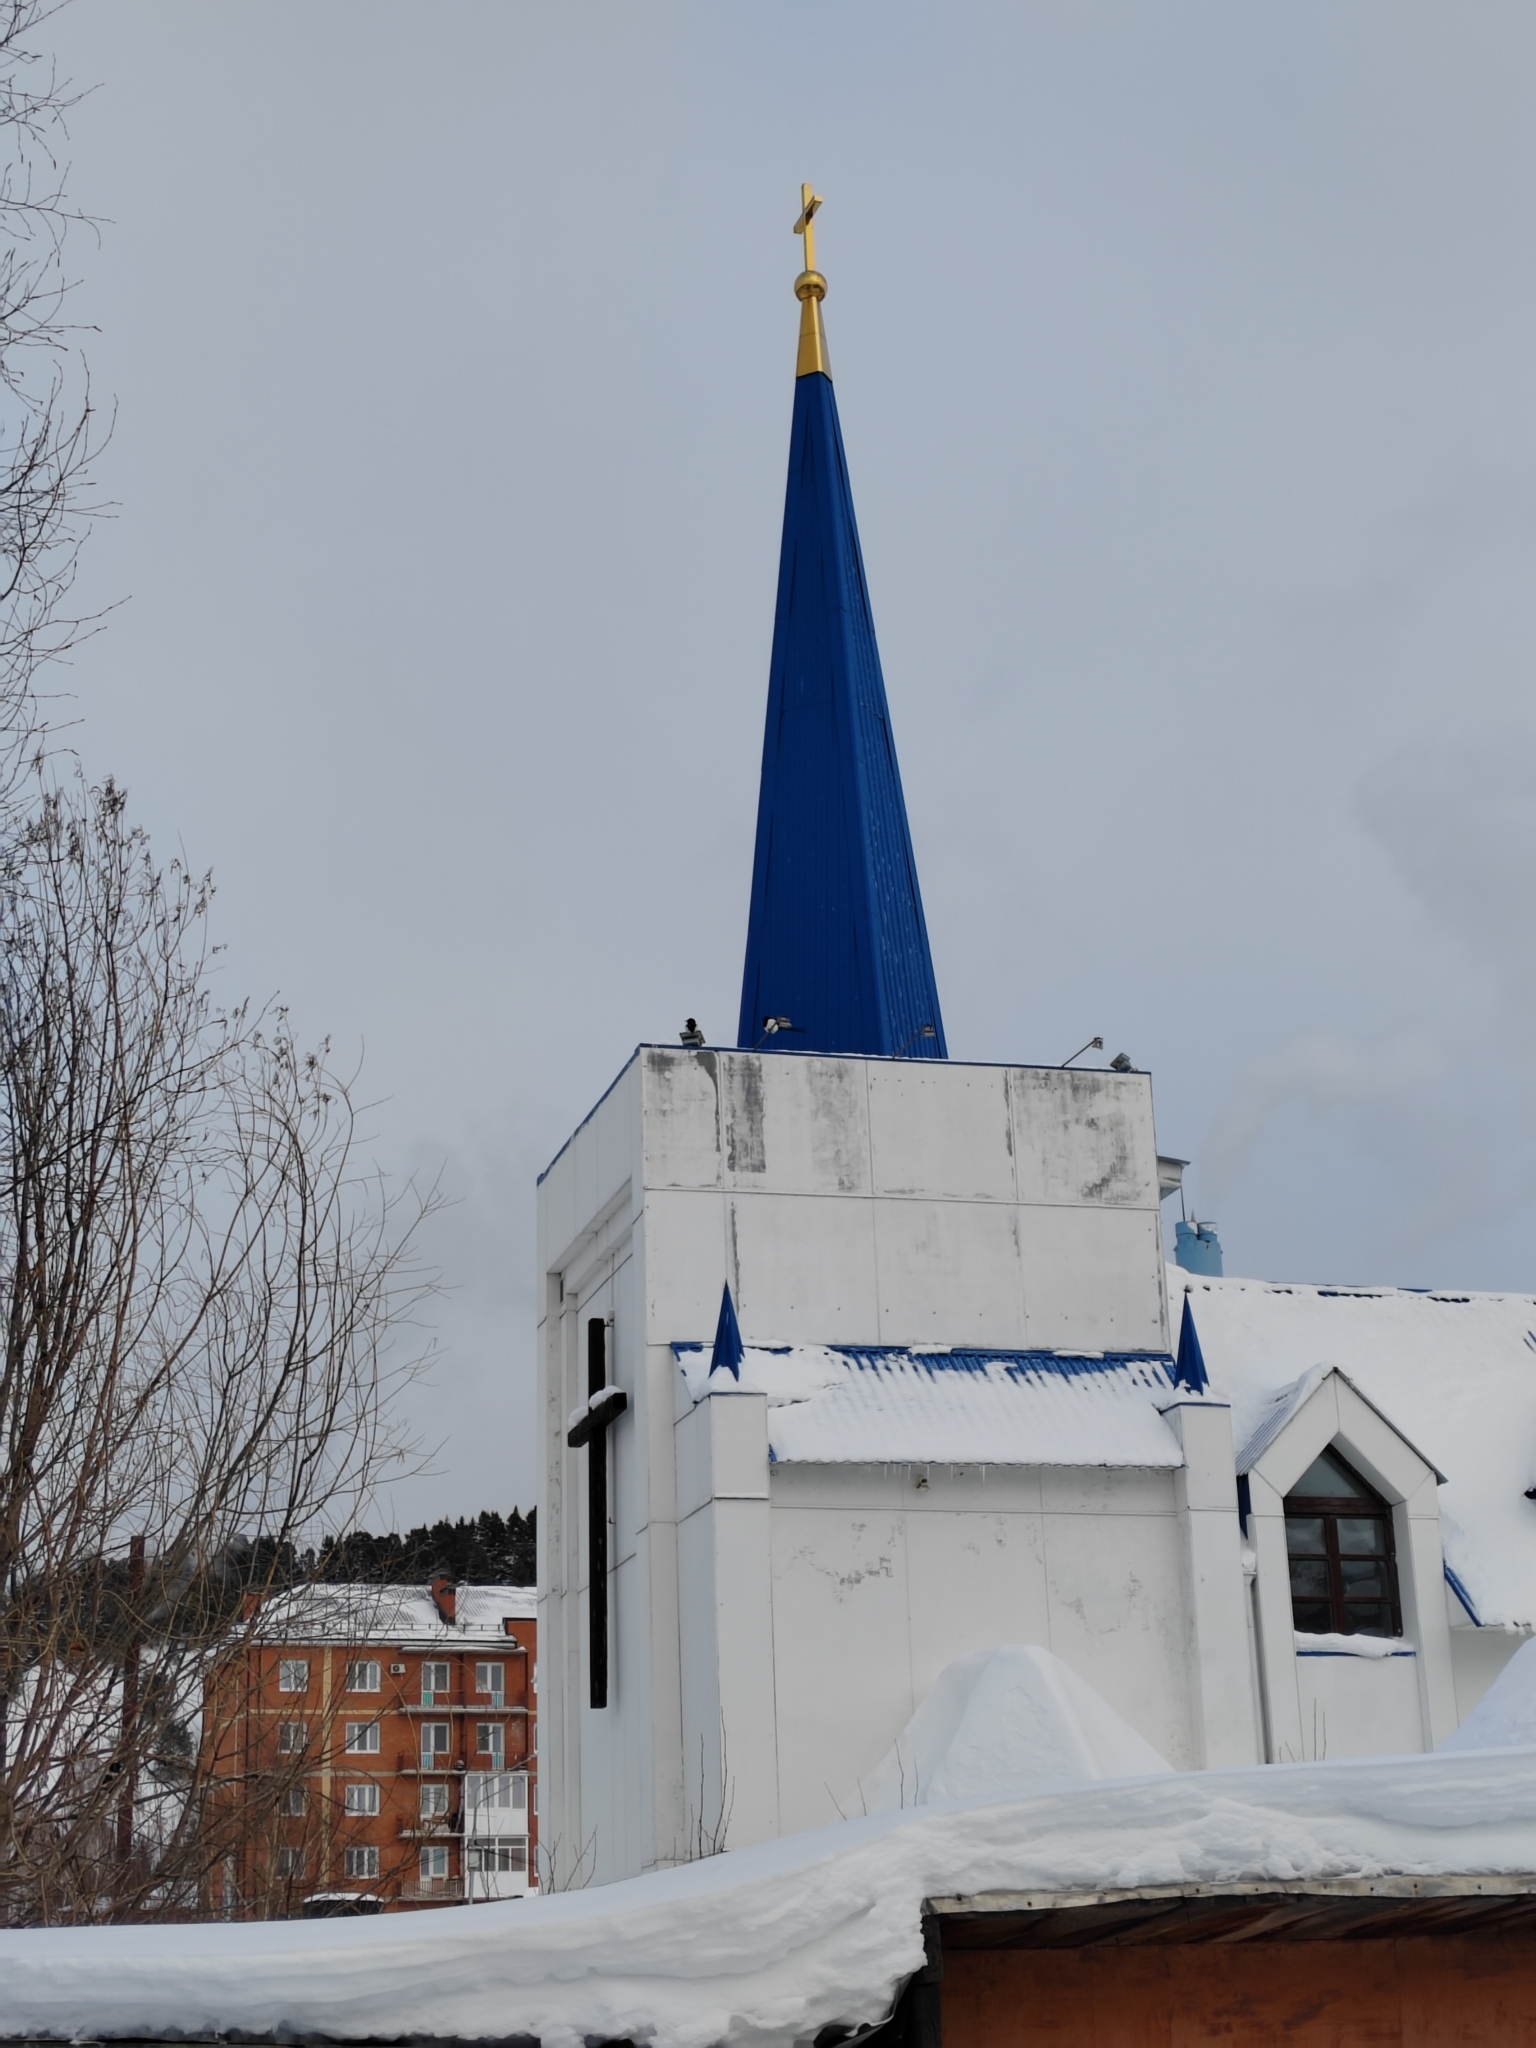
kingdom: Animalia
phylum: Chordata
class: Aves
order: Passeriformes
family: Corvidae
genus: Pica
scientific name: Pica pica
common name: Eurasian magpie
